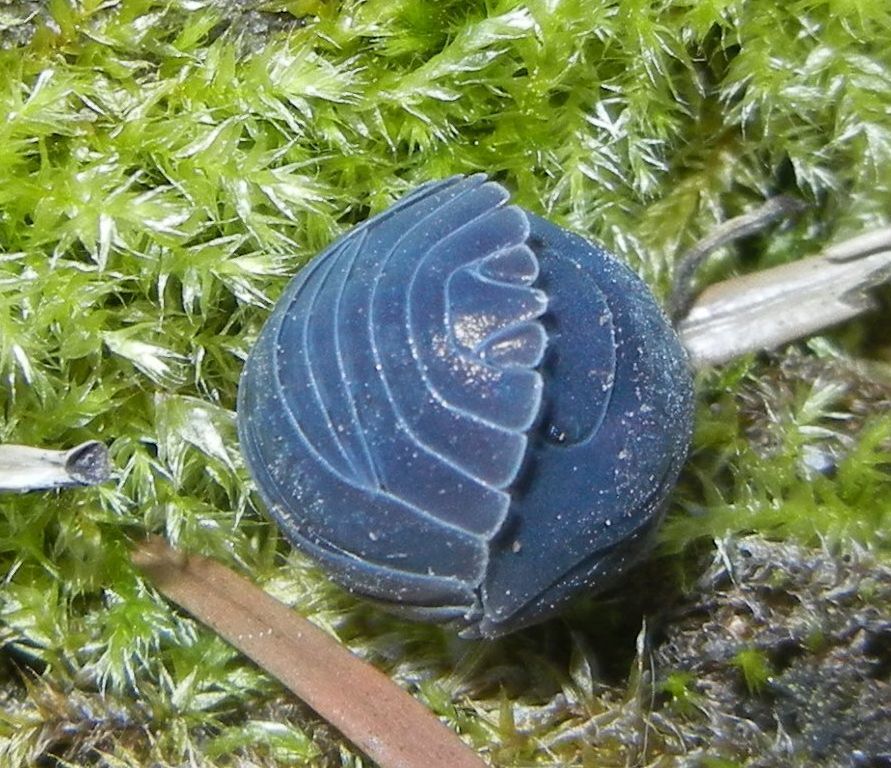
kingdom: Animalia
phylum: Arthropoda
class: Malacostraca
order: Isopoda
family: Armadillidiidae
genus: Armadillidium
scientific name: Armadillidium
